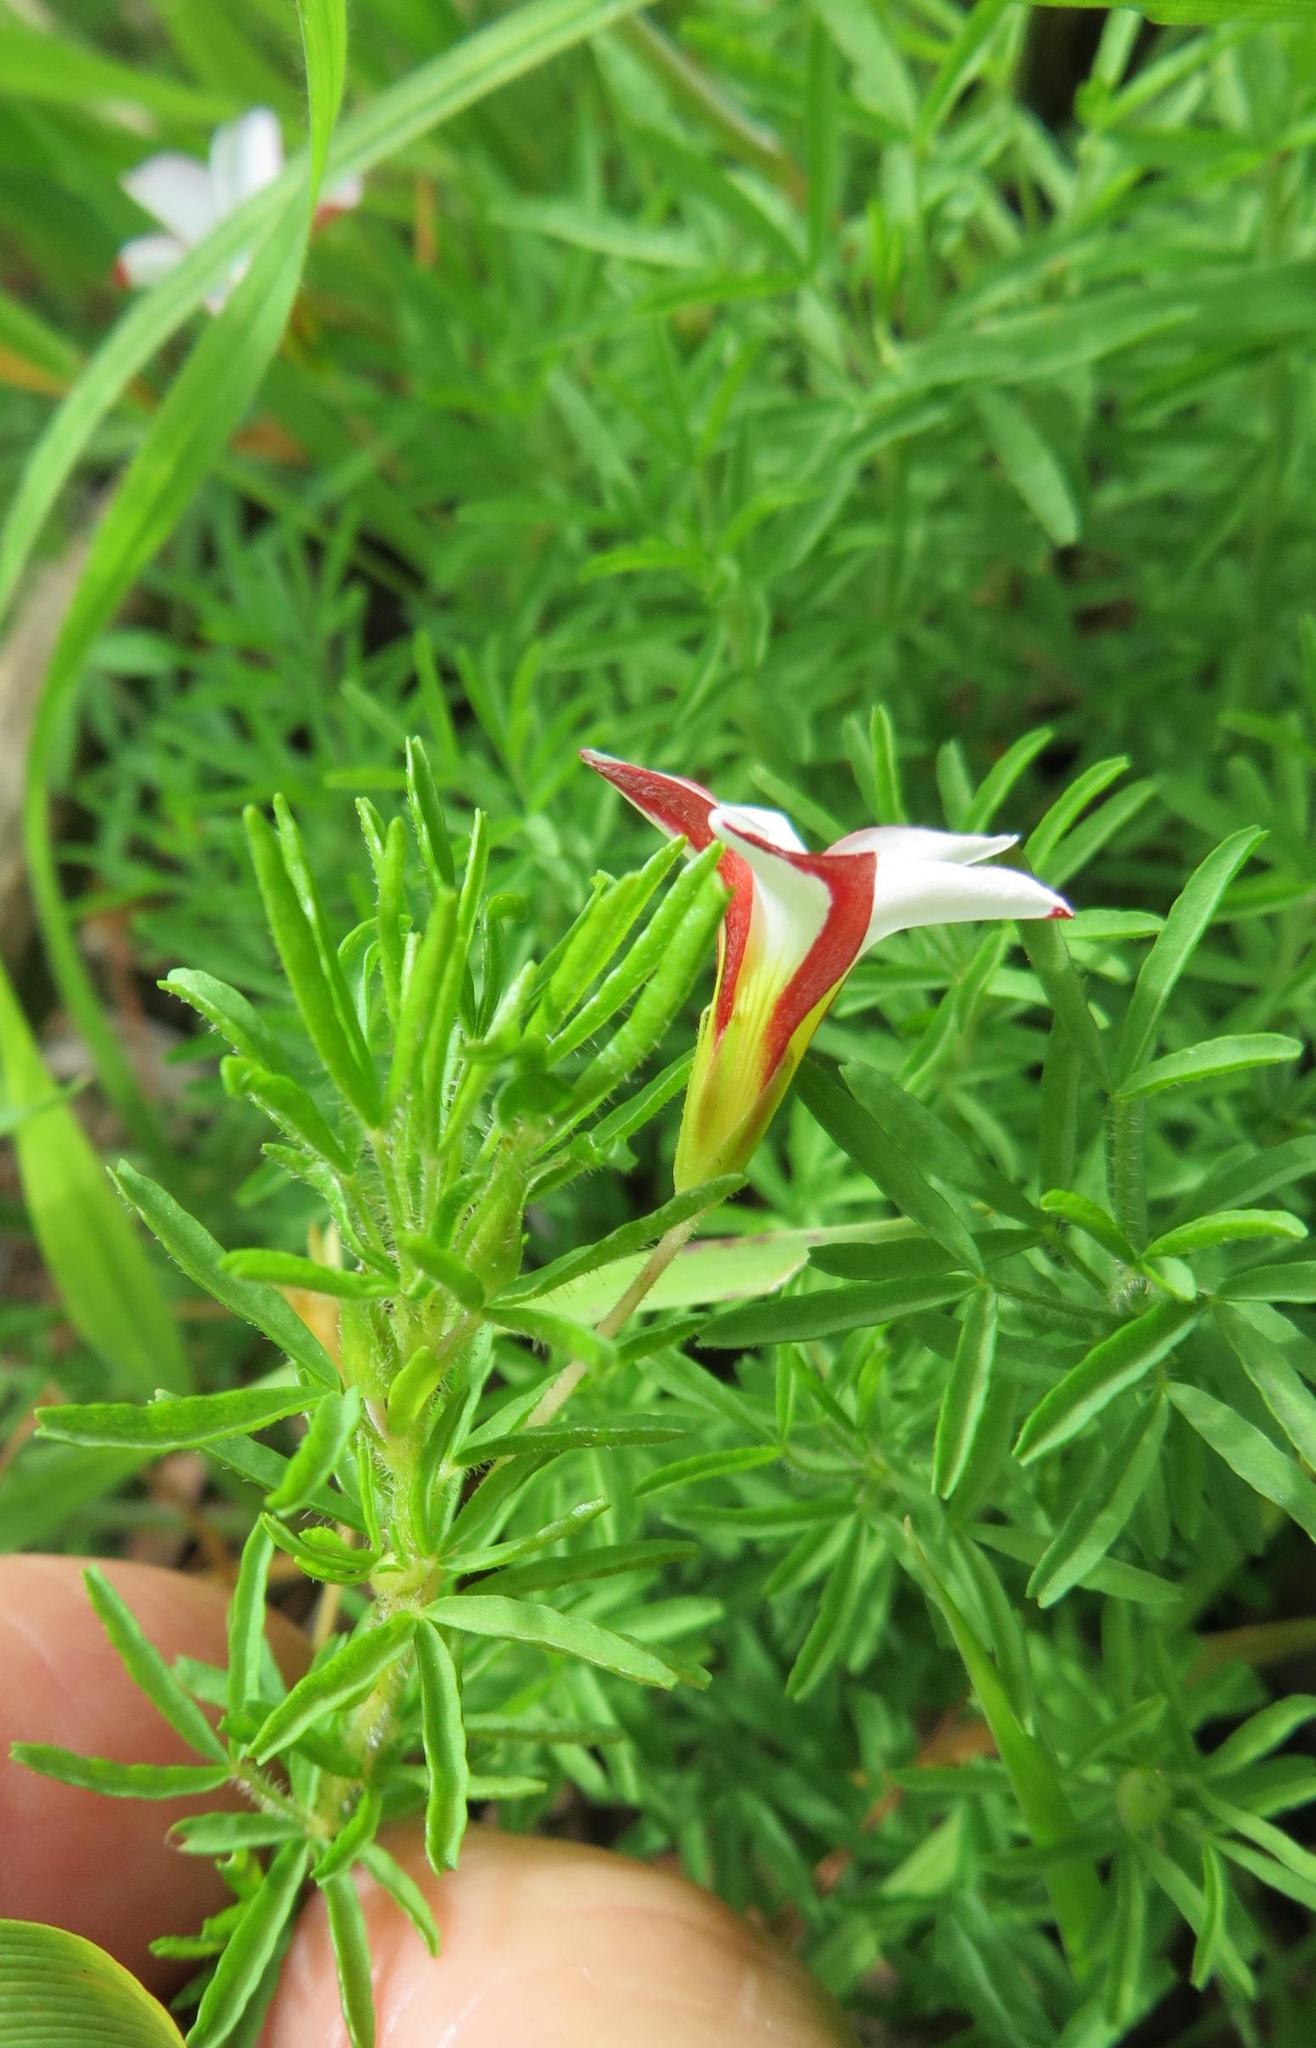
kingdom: Plantae
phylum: Tracheophyta
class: Magnoliopsida
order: Oxalidales
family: Oxalidaceae
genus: Oxalis
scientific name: Oxalis tenuifolia
